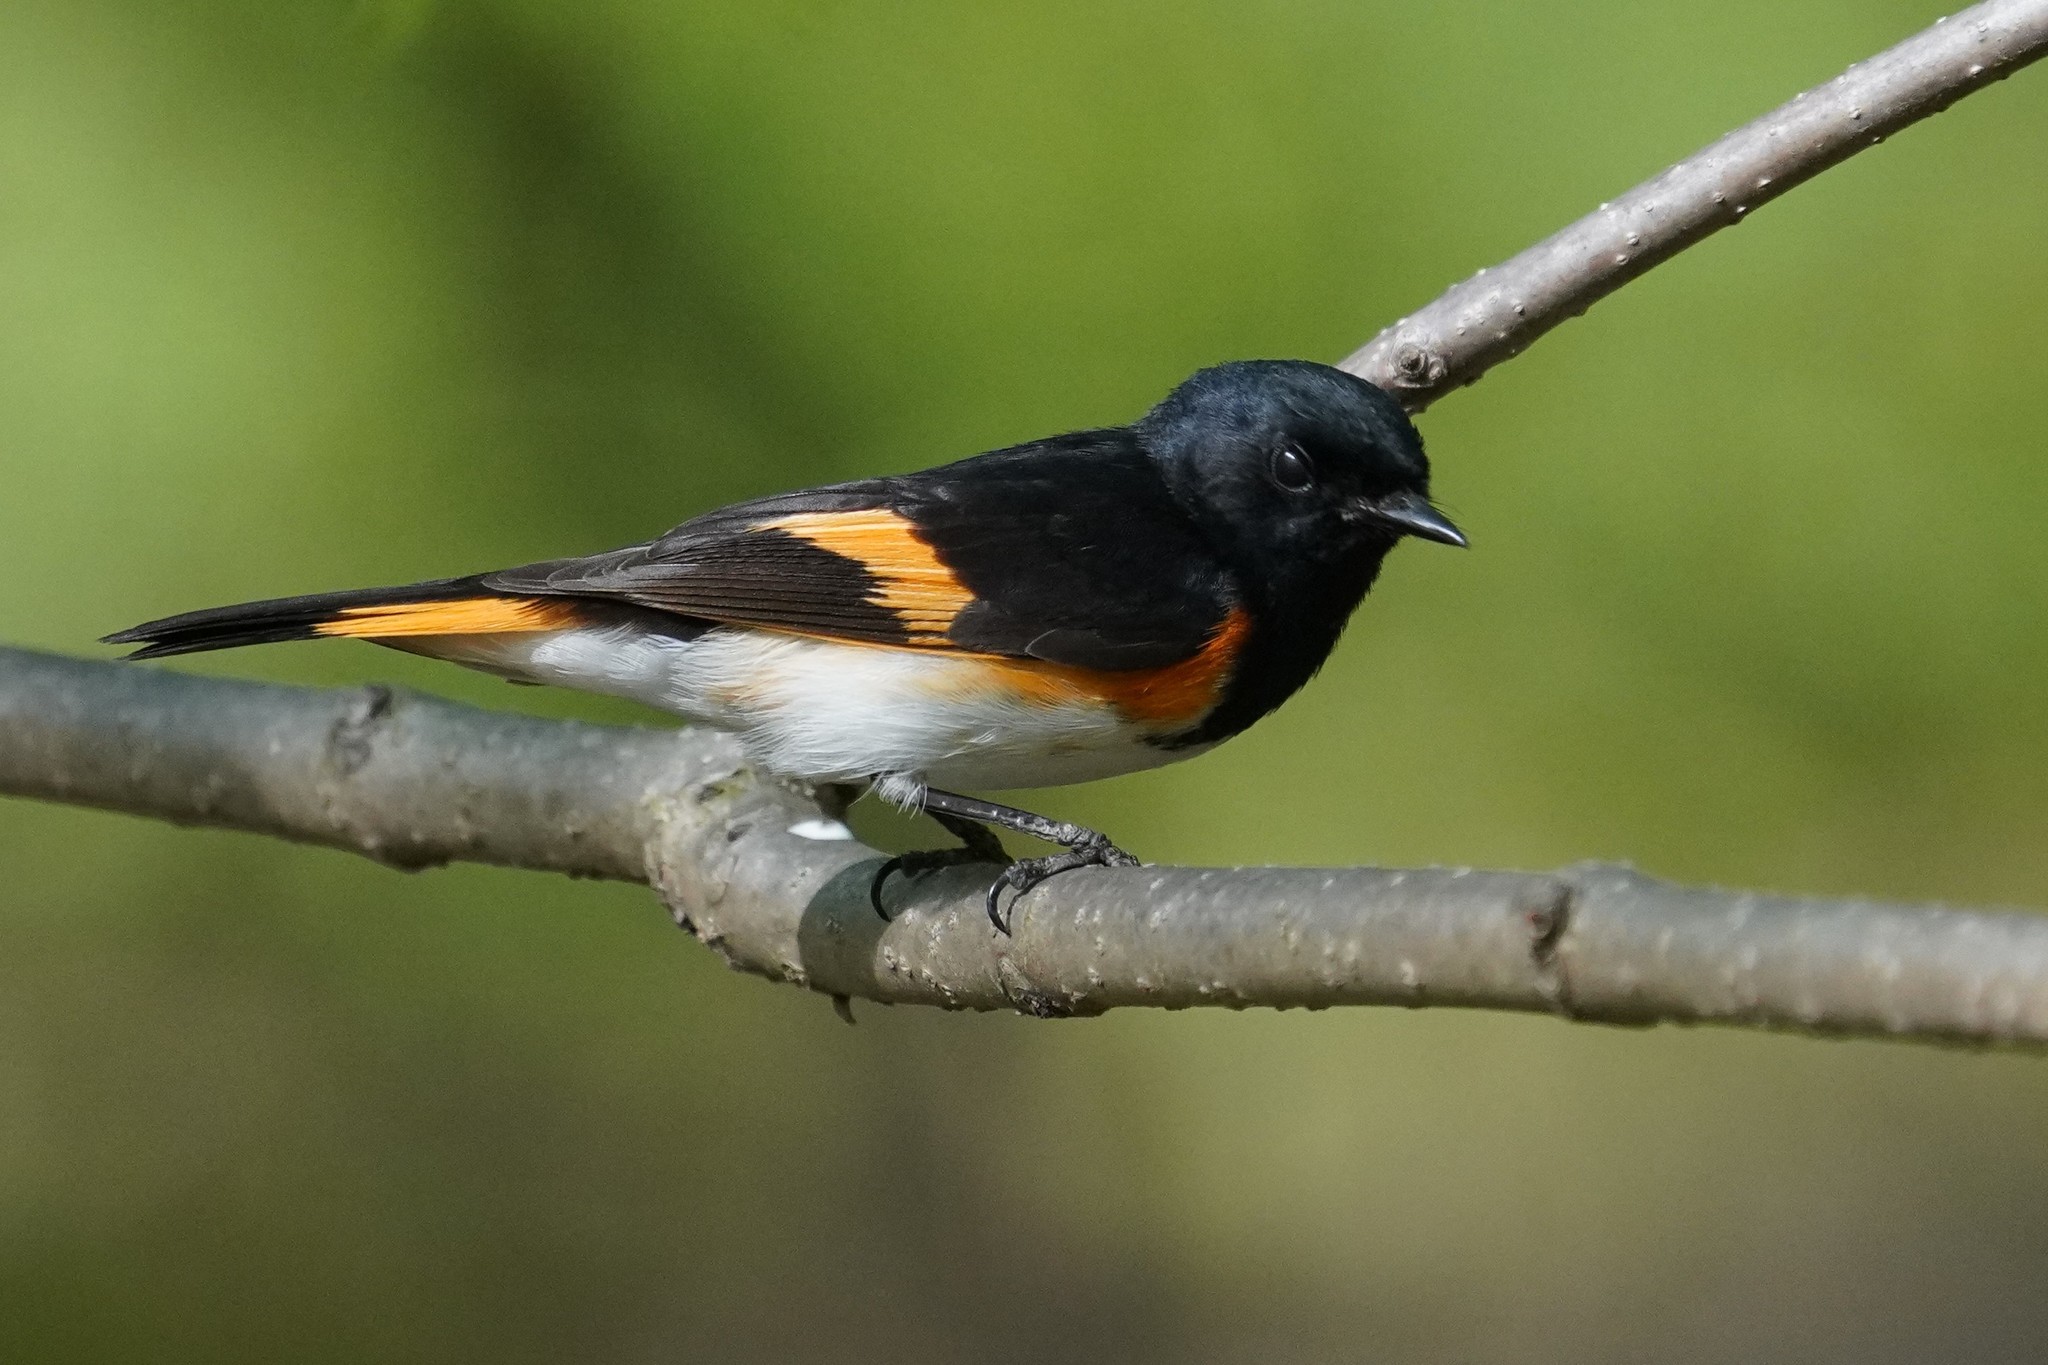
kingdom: Animalia
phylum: Chordata
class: Aves
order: Passeriformes
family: Parulidae
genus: Setophaga
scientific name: Setophaga ruticilla
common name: American redstart
